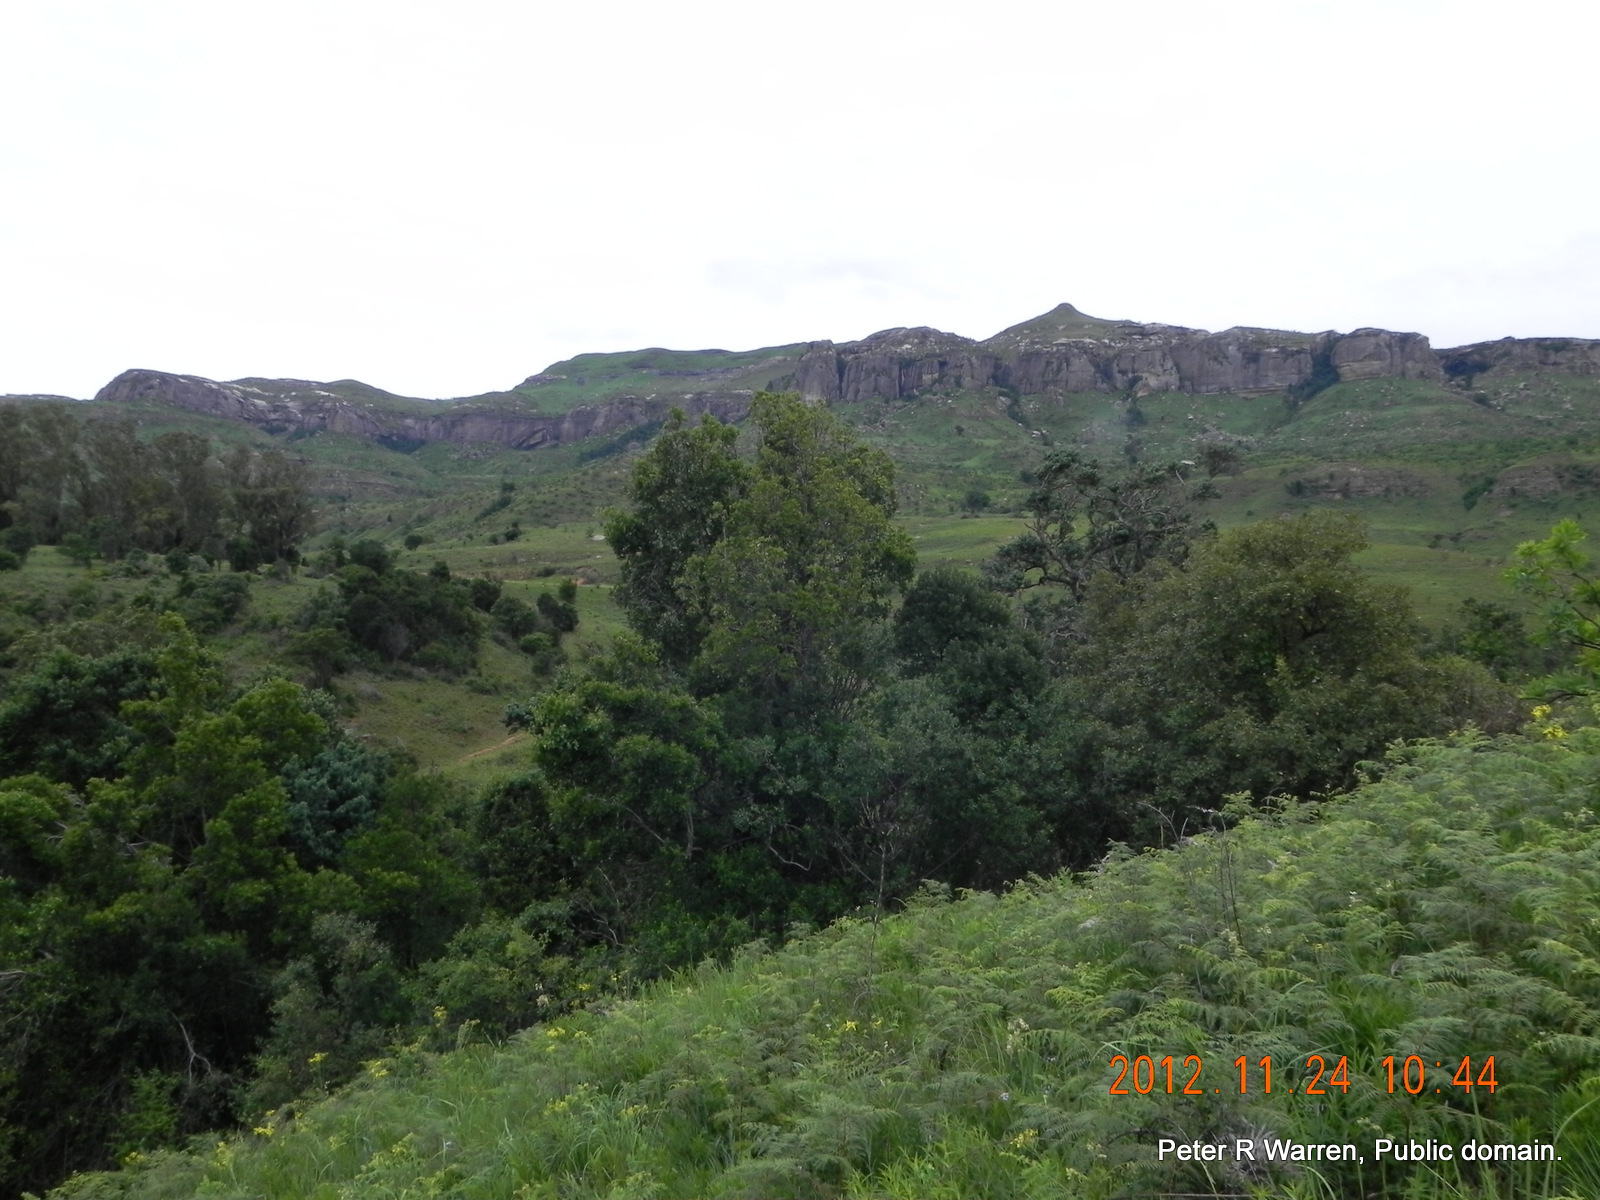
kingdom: Plantae
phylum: Tracheophyta
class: Magnoliopsida
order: Geraniales
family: Geraniaceae
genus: Pelargonium
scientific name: Pelargonium luridum
